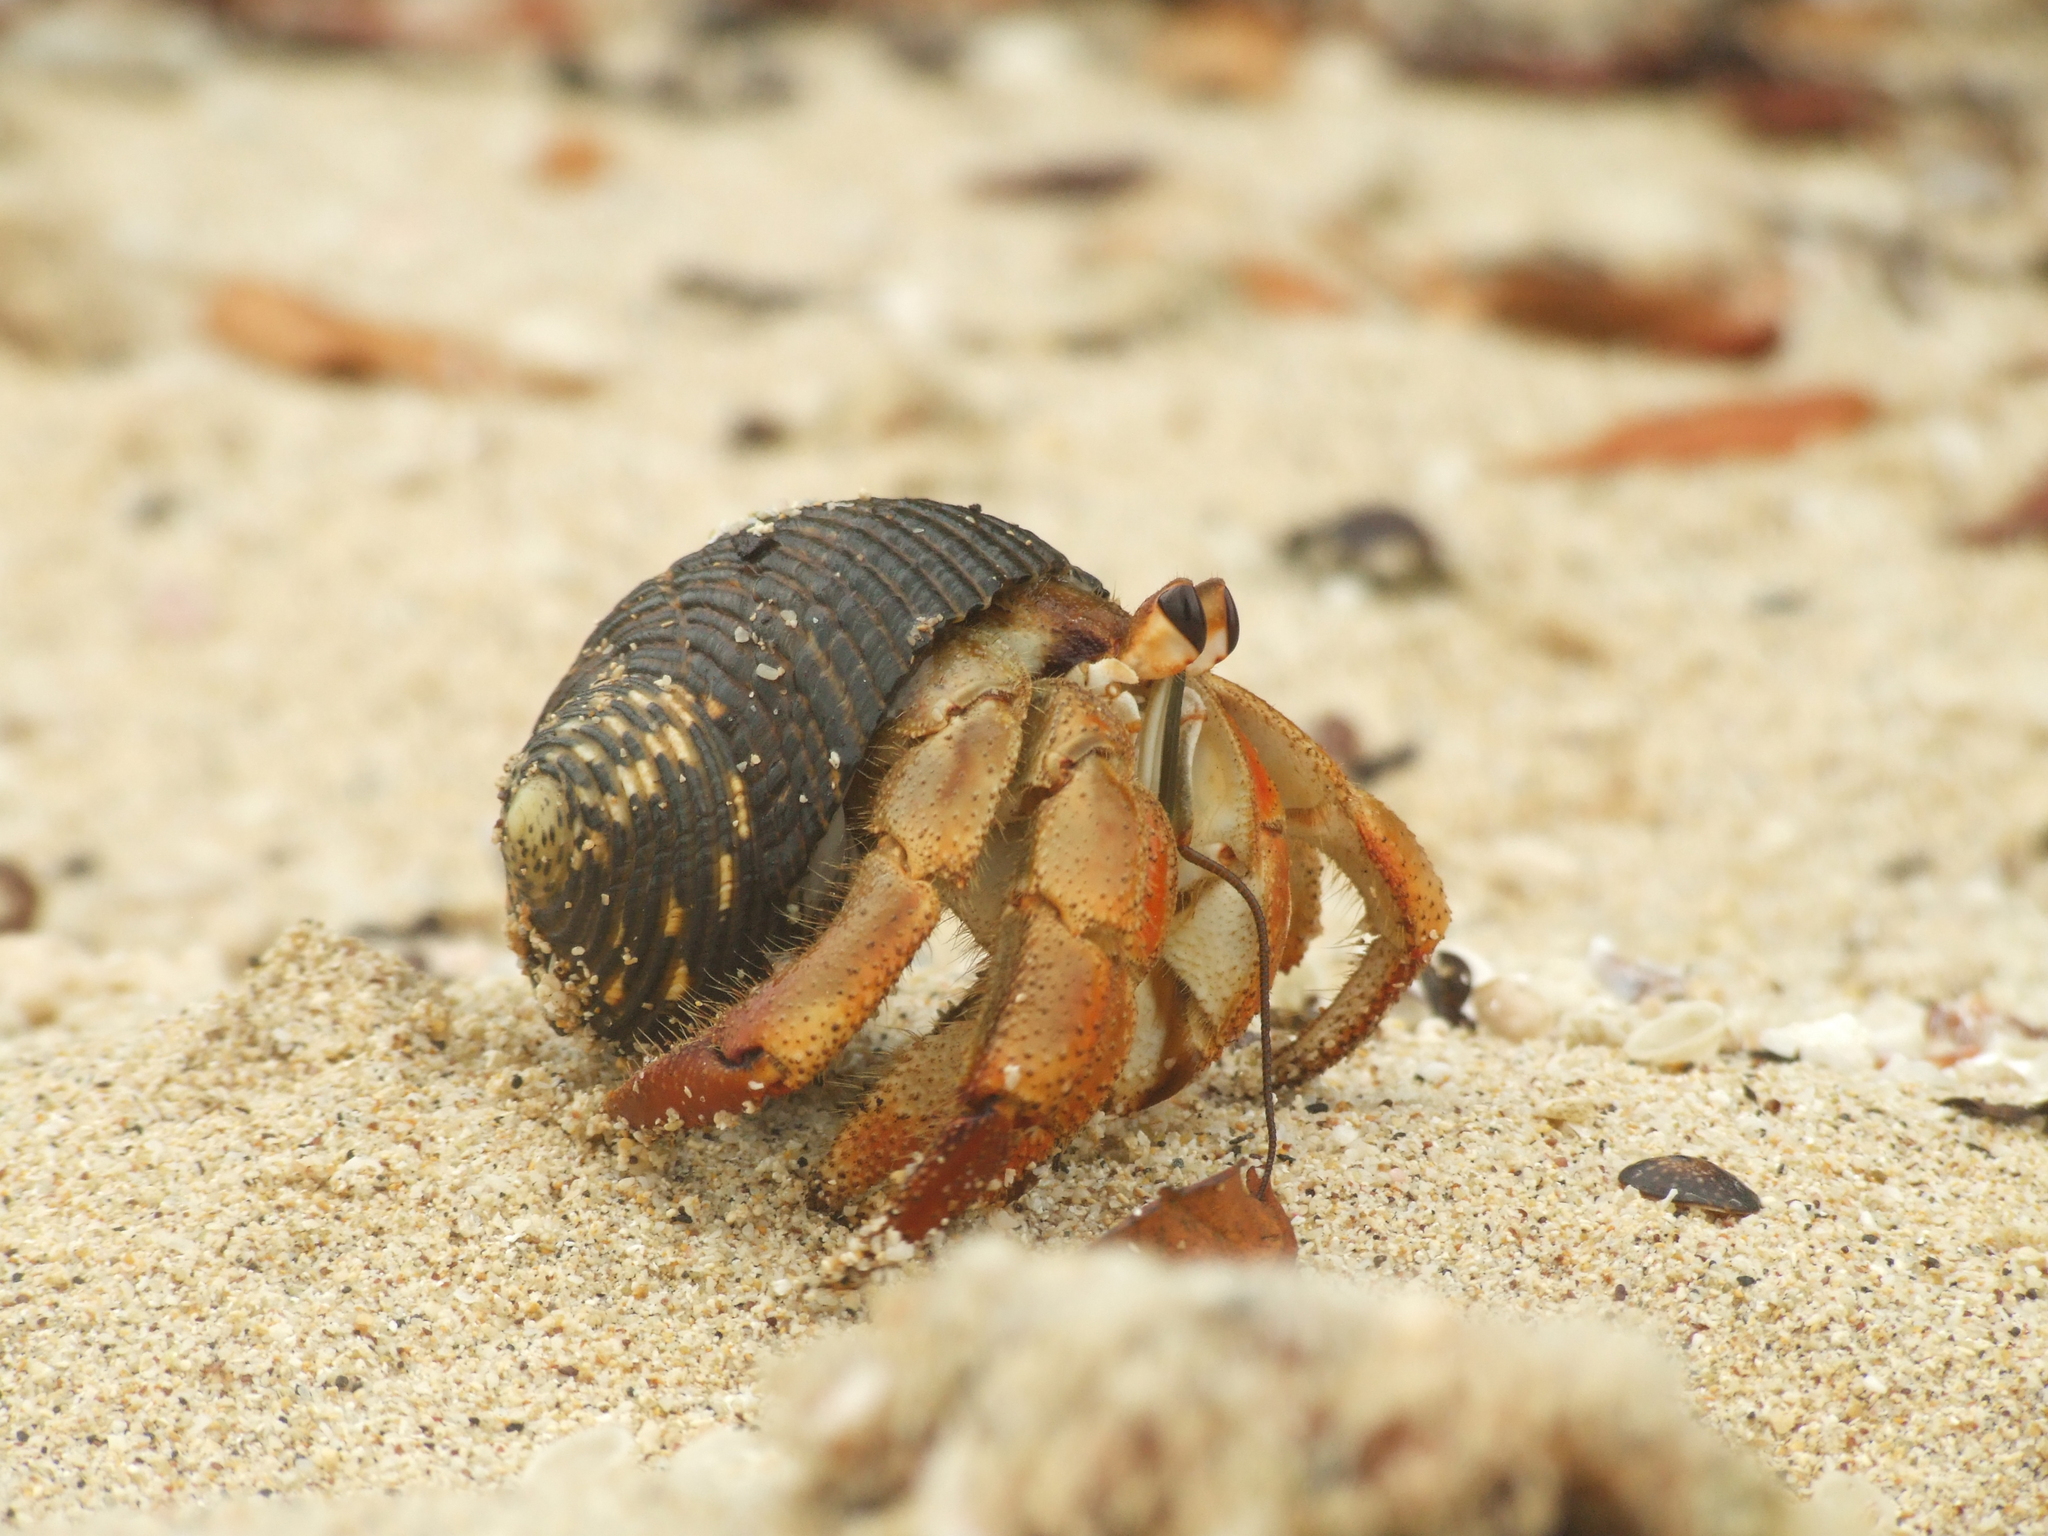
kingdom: Animalia
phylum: Arthropoda
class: Malacostraca
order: Decapoda
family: Coenobitidae
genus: Coenobita
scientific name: Coenobita compressus
